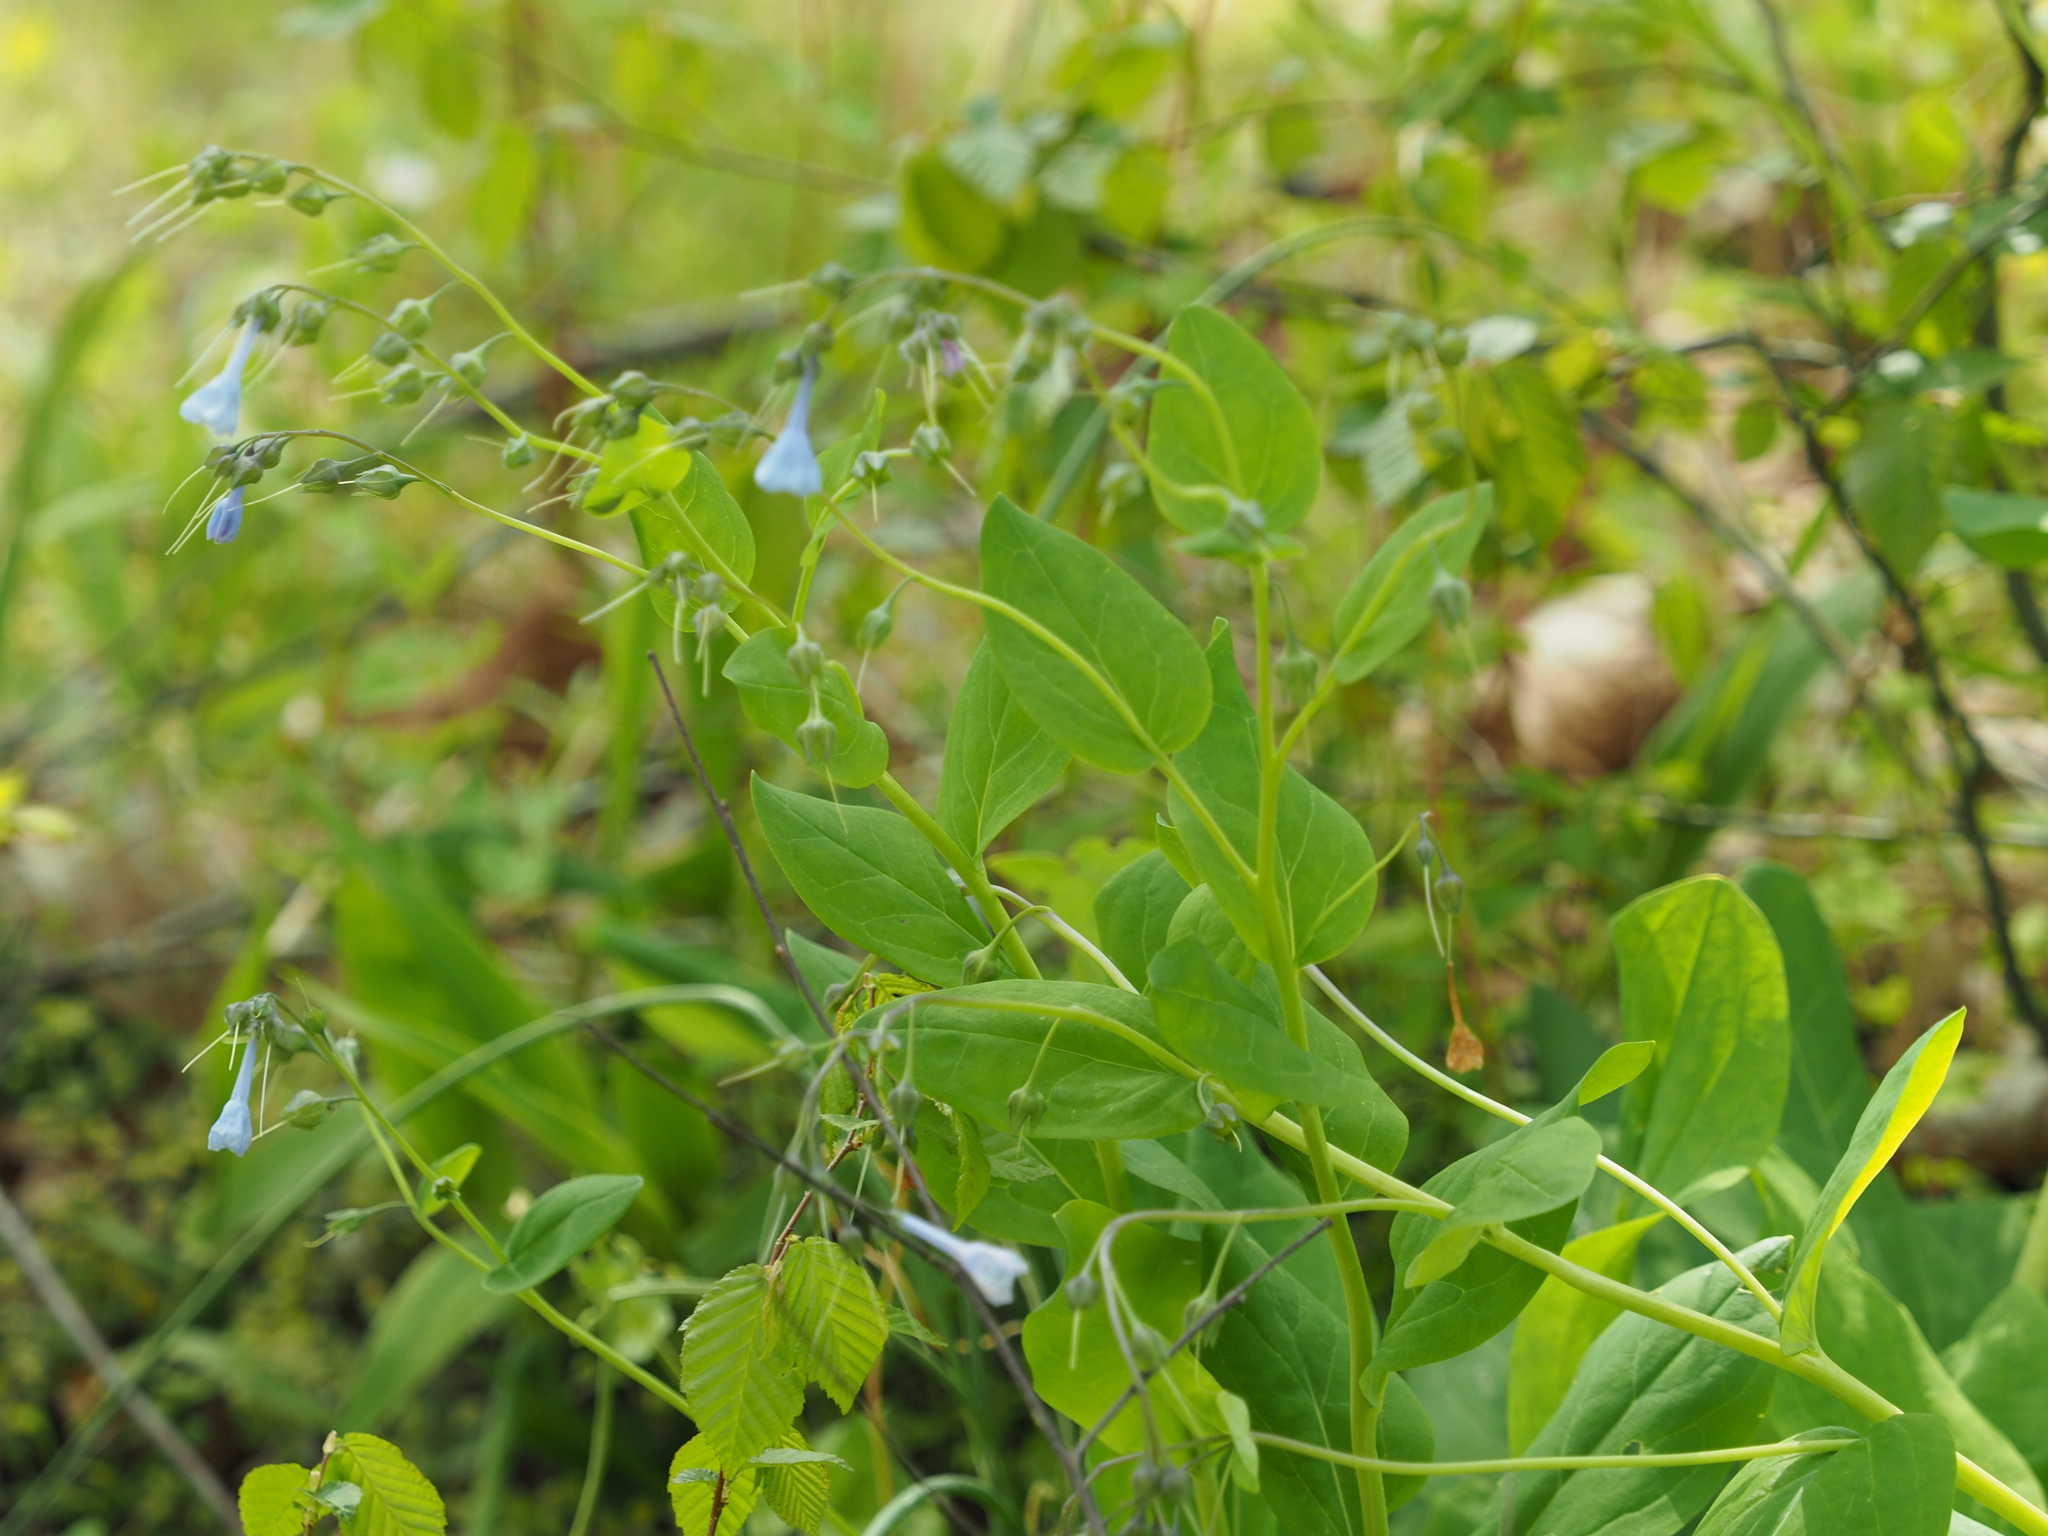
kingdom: Plantae
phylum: Tracheophyta
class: Magnoliopsida
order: Boraginales
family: Boraginaceae
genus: Mertensia
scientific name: Mertensia virginica
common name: Virginia bluebells
